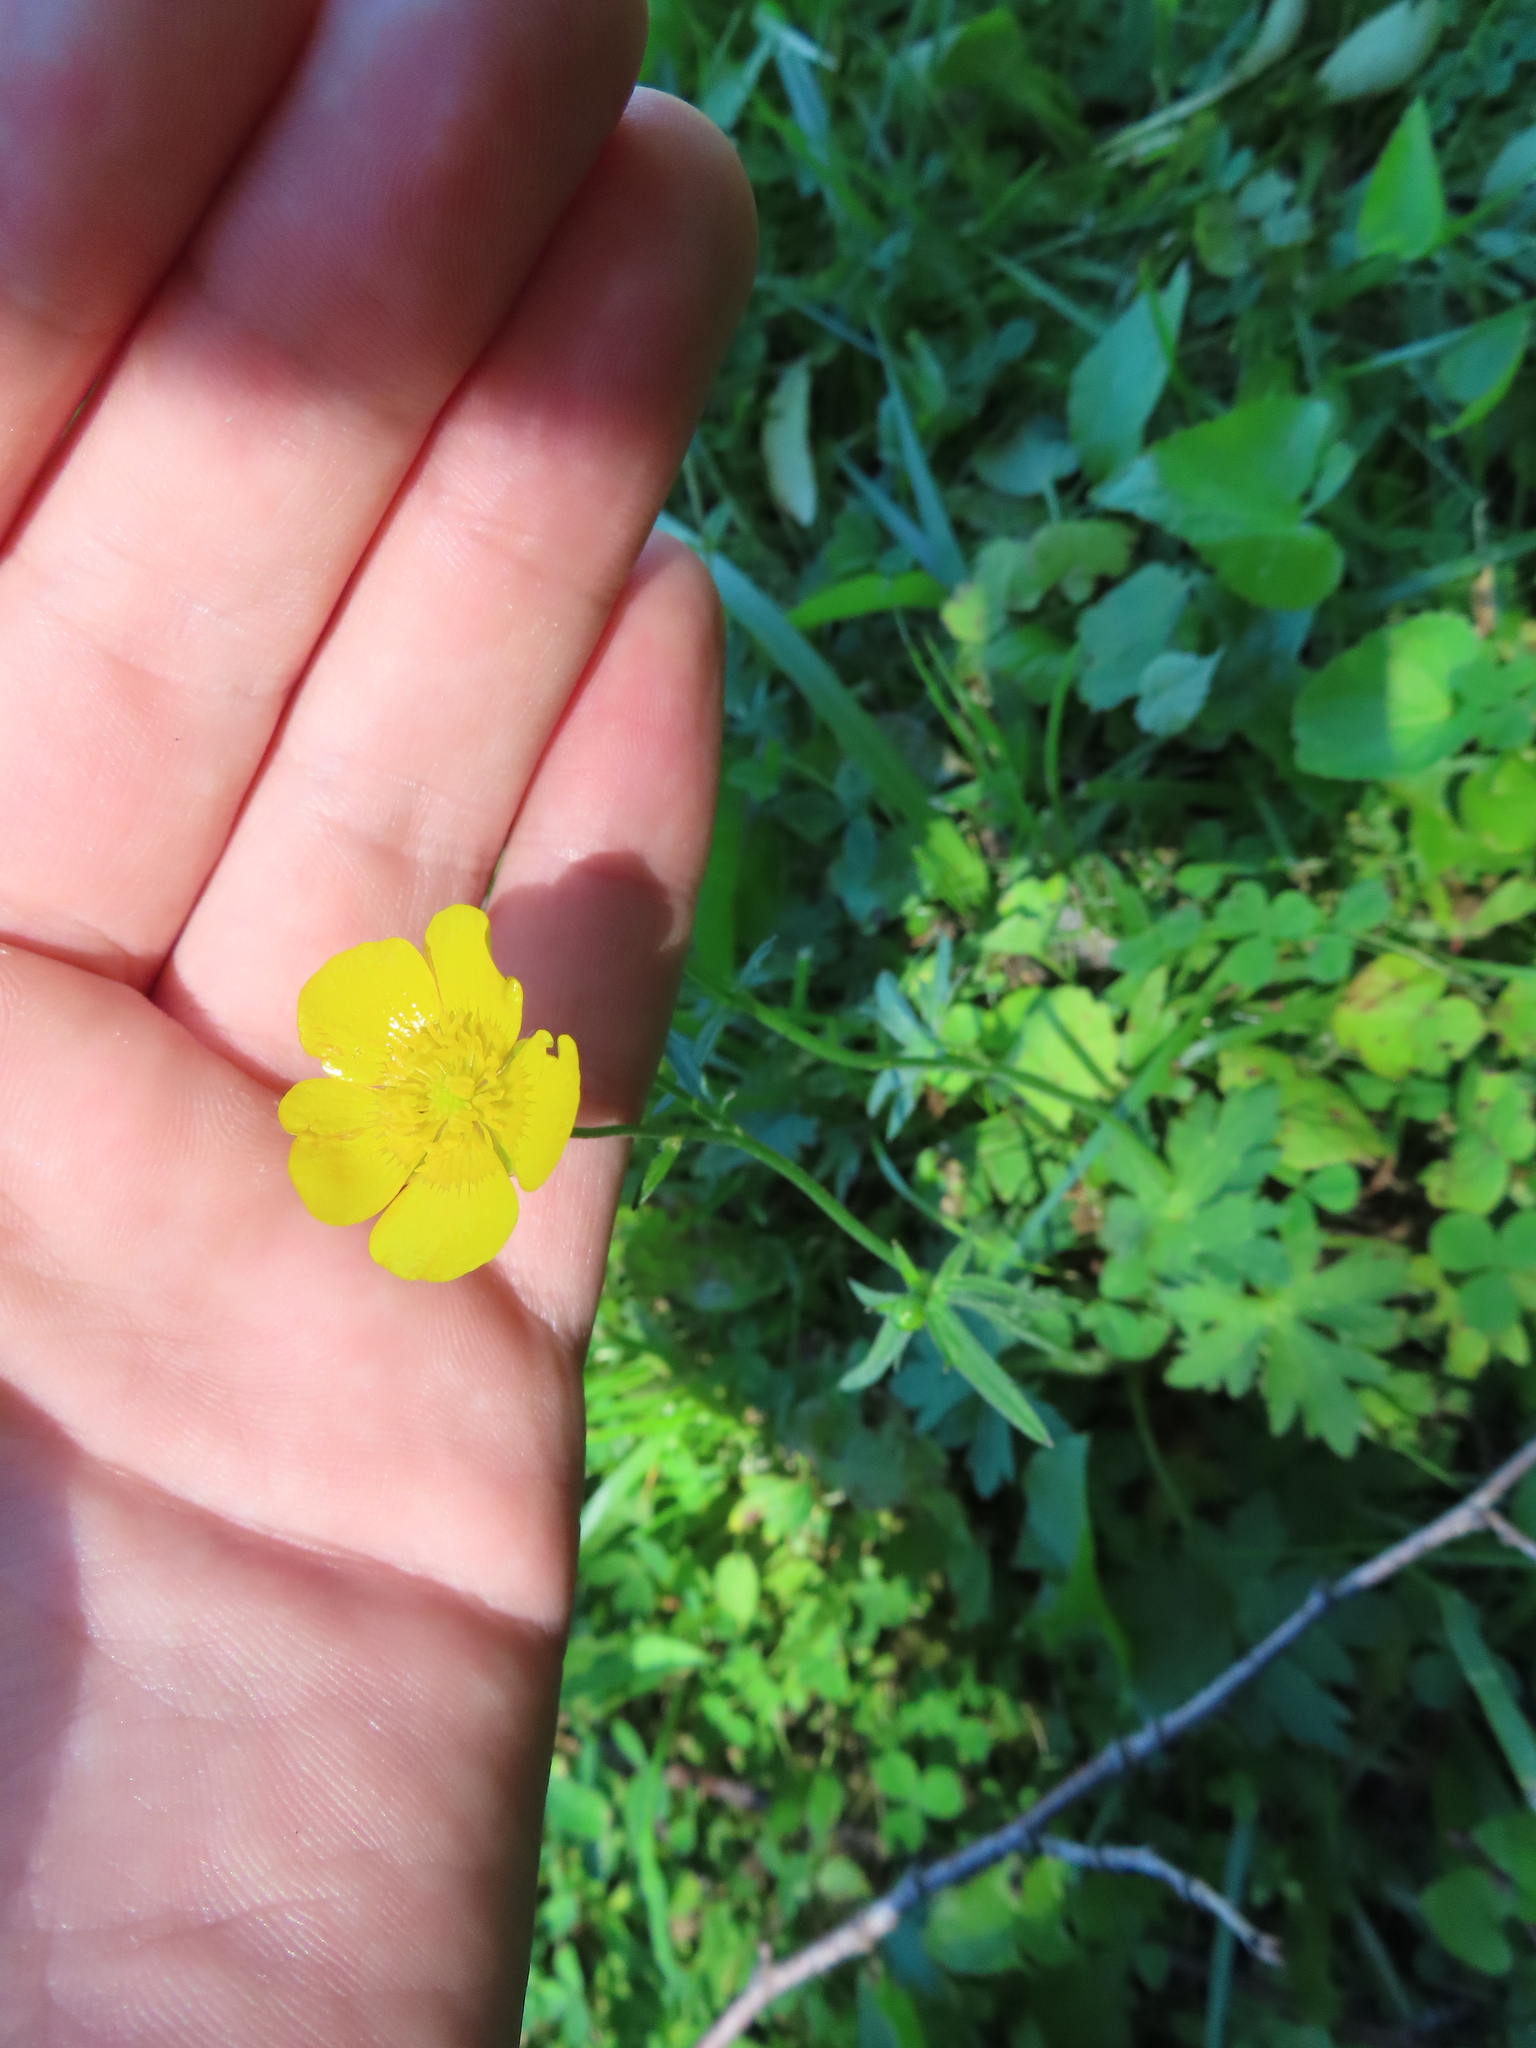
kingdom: Plantae
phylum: Tracheophyta
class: Magnoliopsida
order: Ranunculales
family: Ranunculaceae
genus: Ranunculus
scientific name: Ranunculus acris
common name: Meadow buttercup
